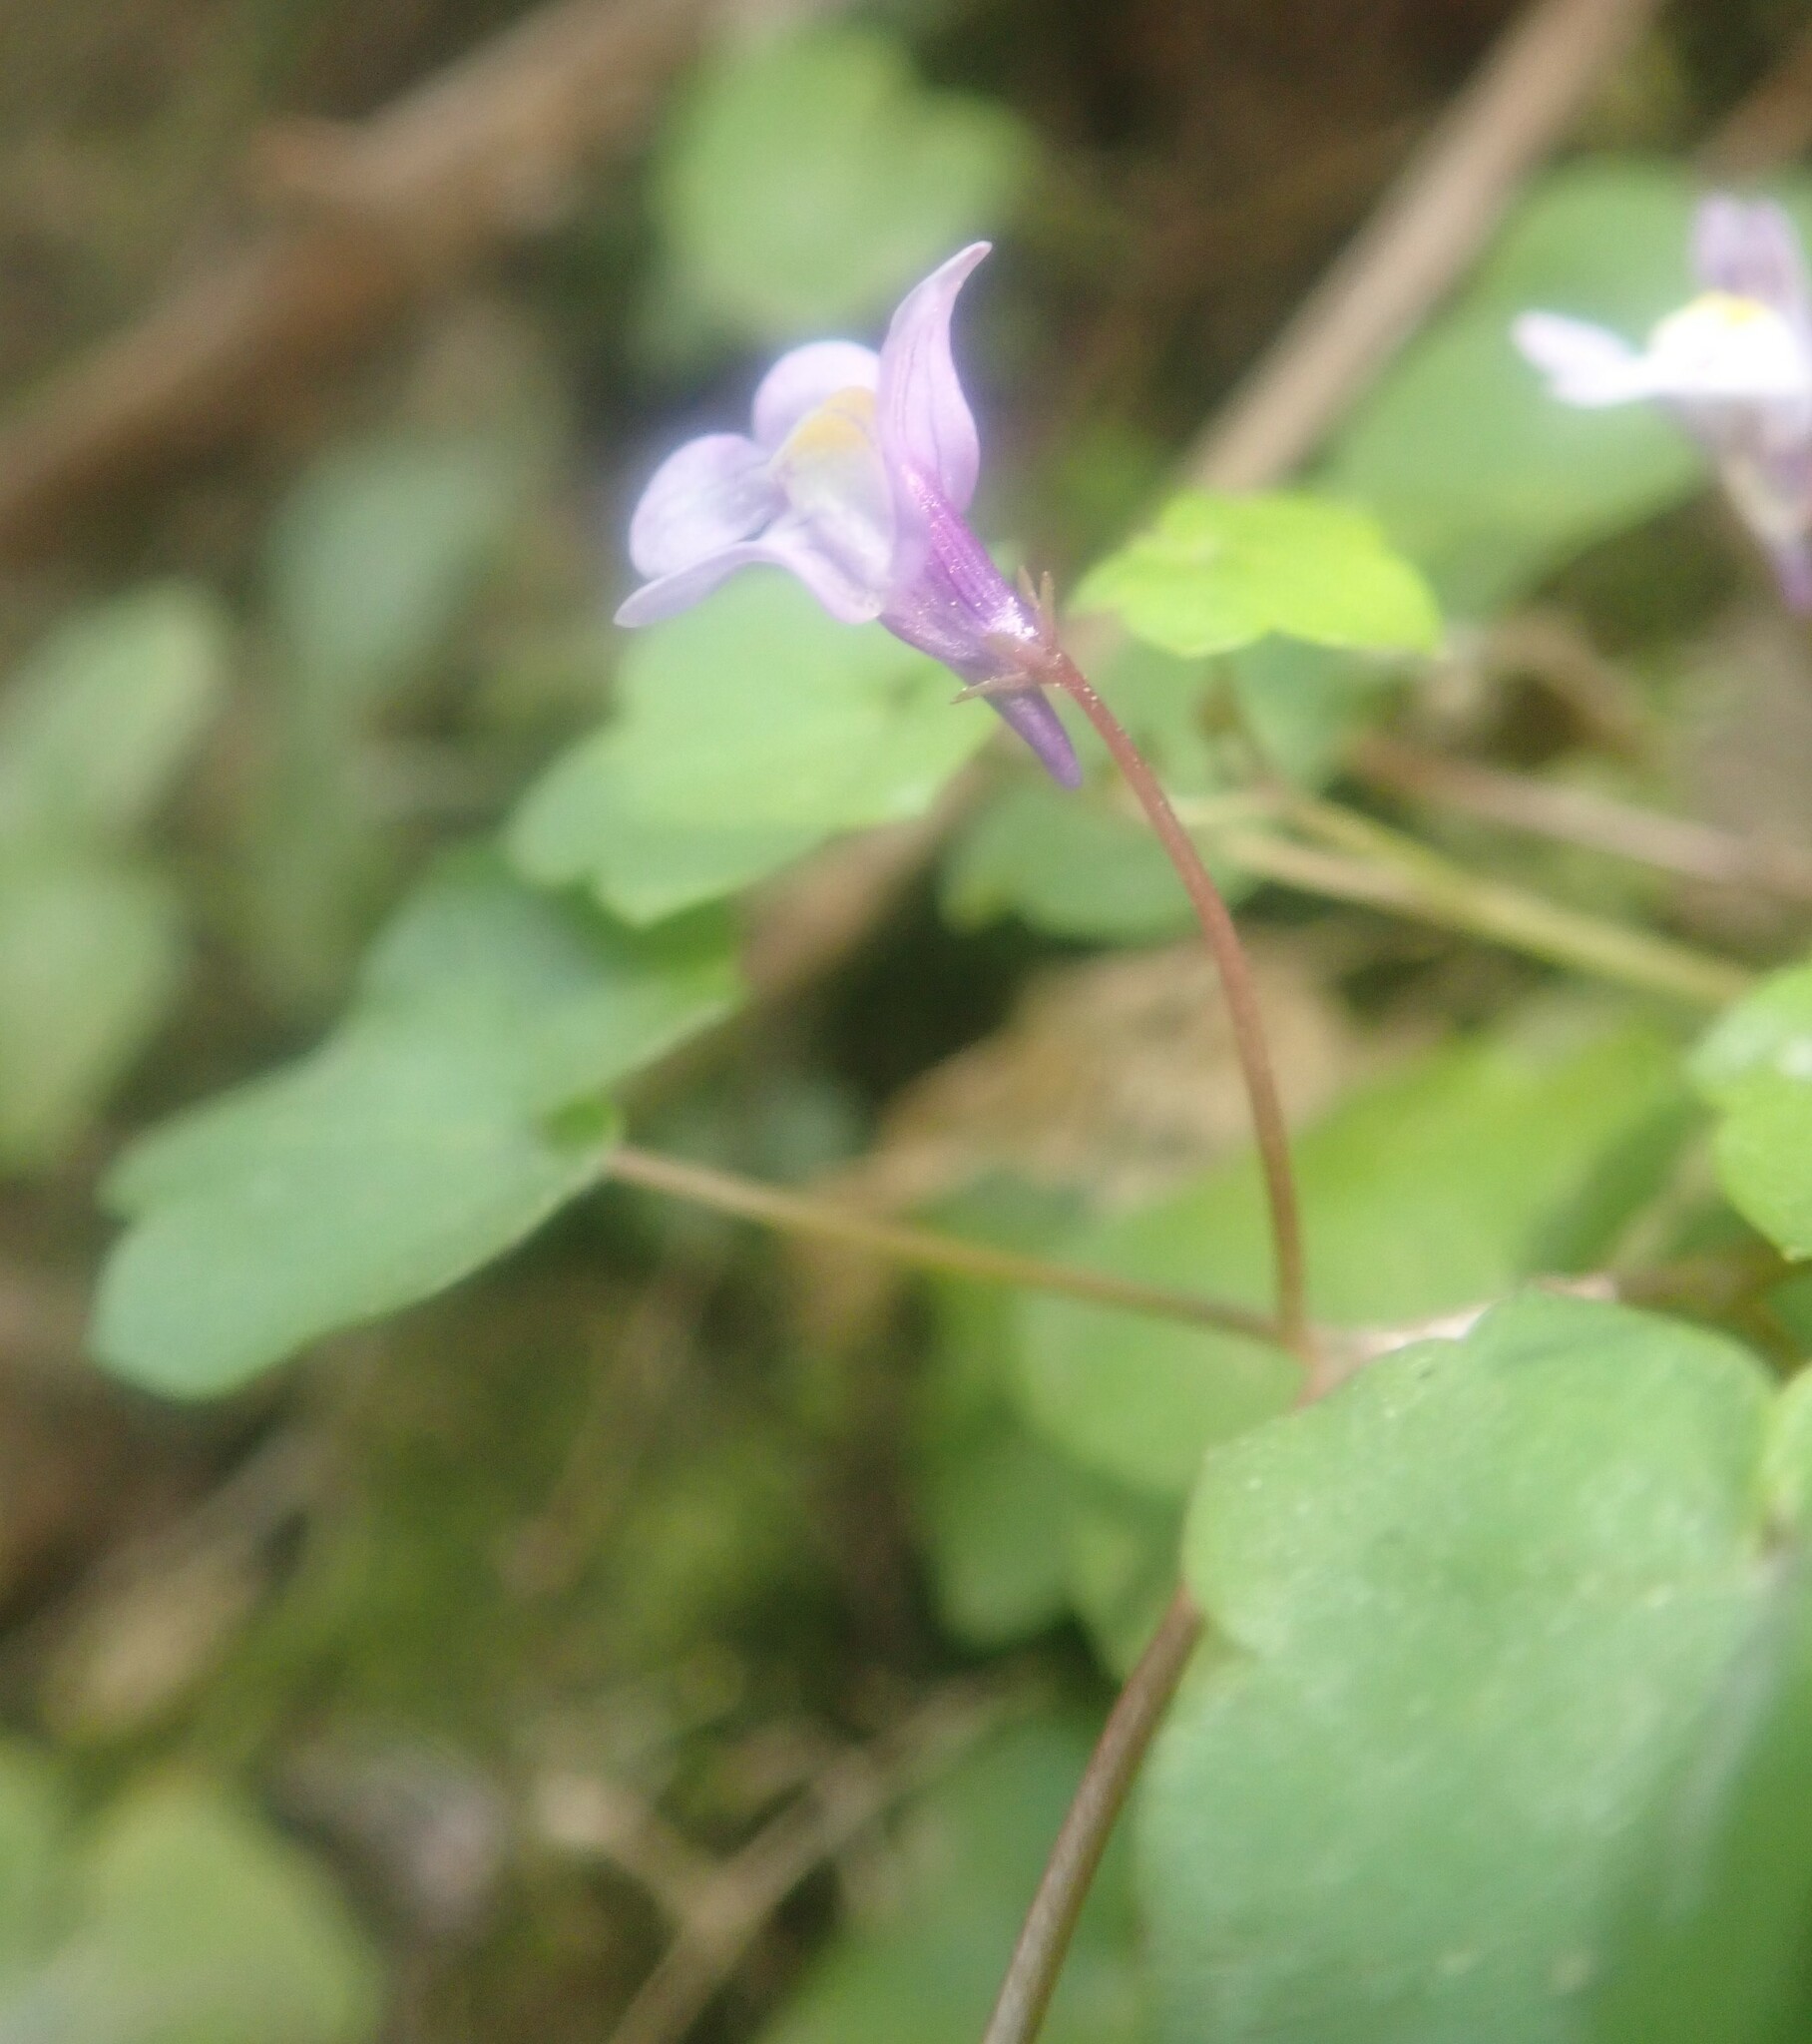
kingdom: Plantae
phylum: Tracheophyta
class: Magnoliopsida
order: Lamiales
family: Plantaginaceae
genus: Cymbalaria
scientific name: Cymbalaria muralis
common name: Ivy-leaved toadflax
